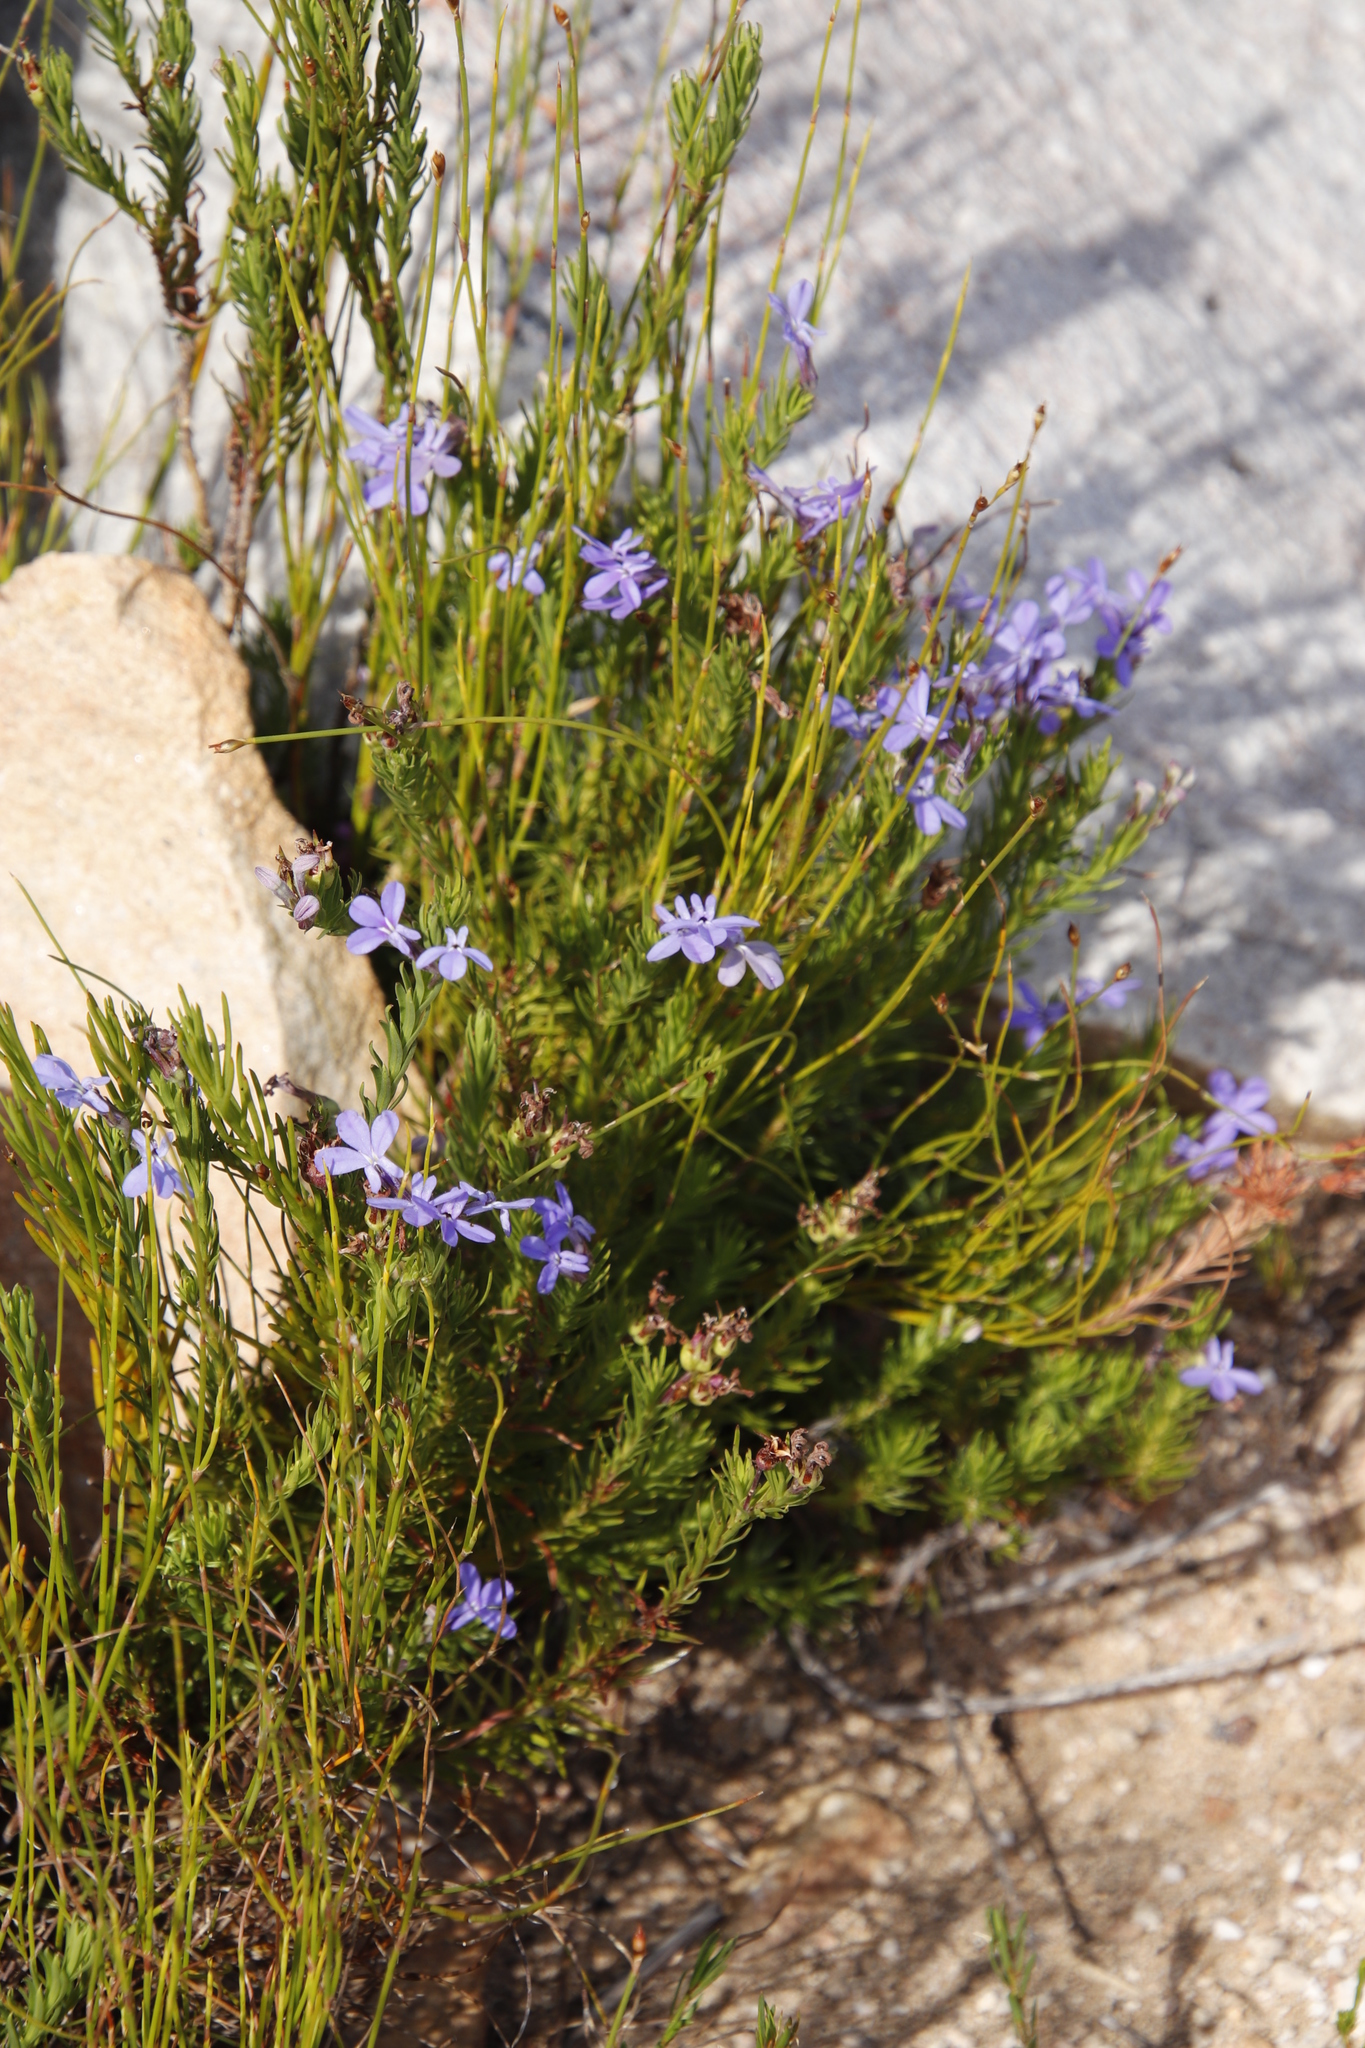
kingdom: Plantae
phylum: Tracheophyta
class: Magnoliopsida
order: Asterales
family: Campanulaceae
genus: Lobelia
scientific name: Lobelia pinifolia
